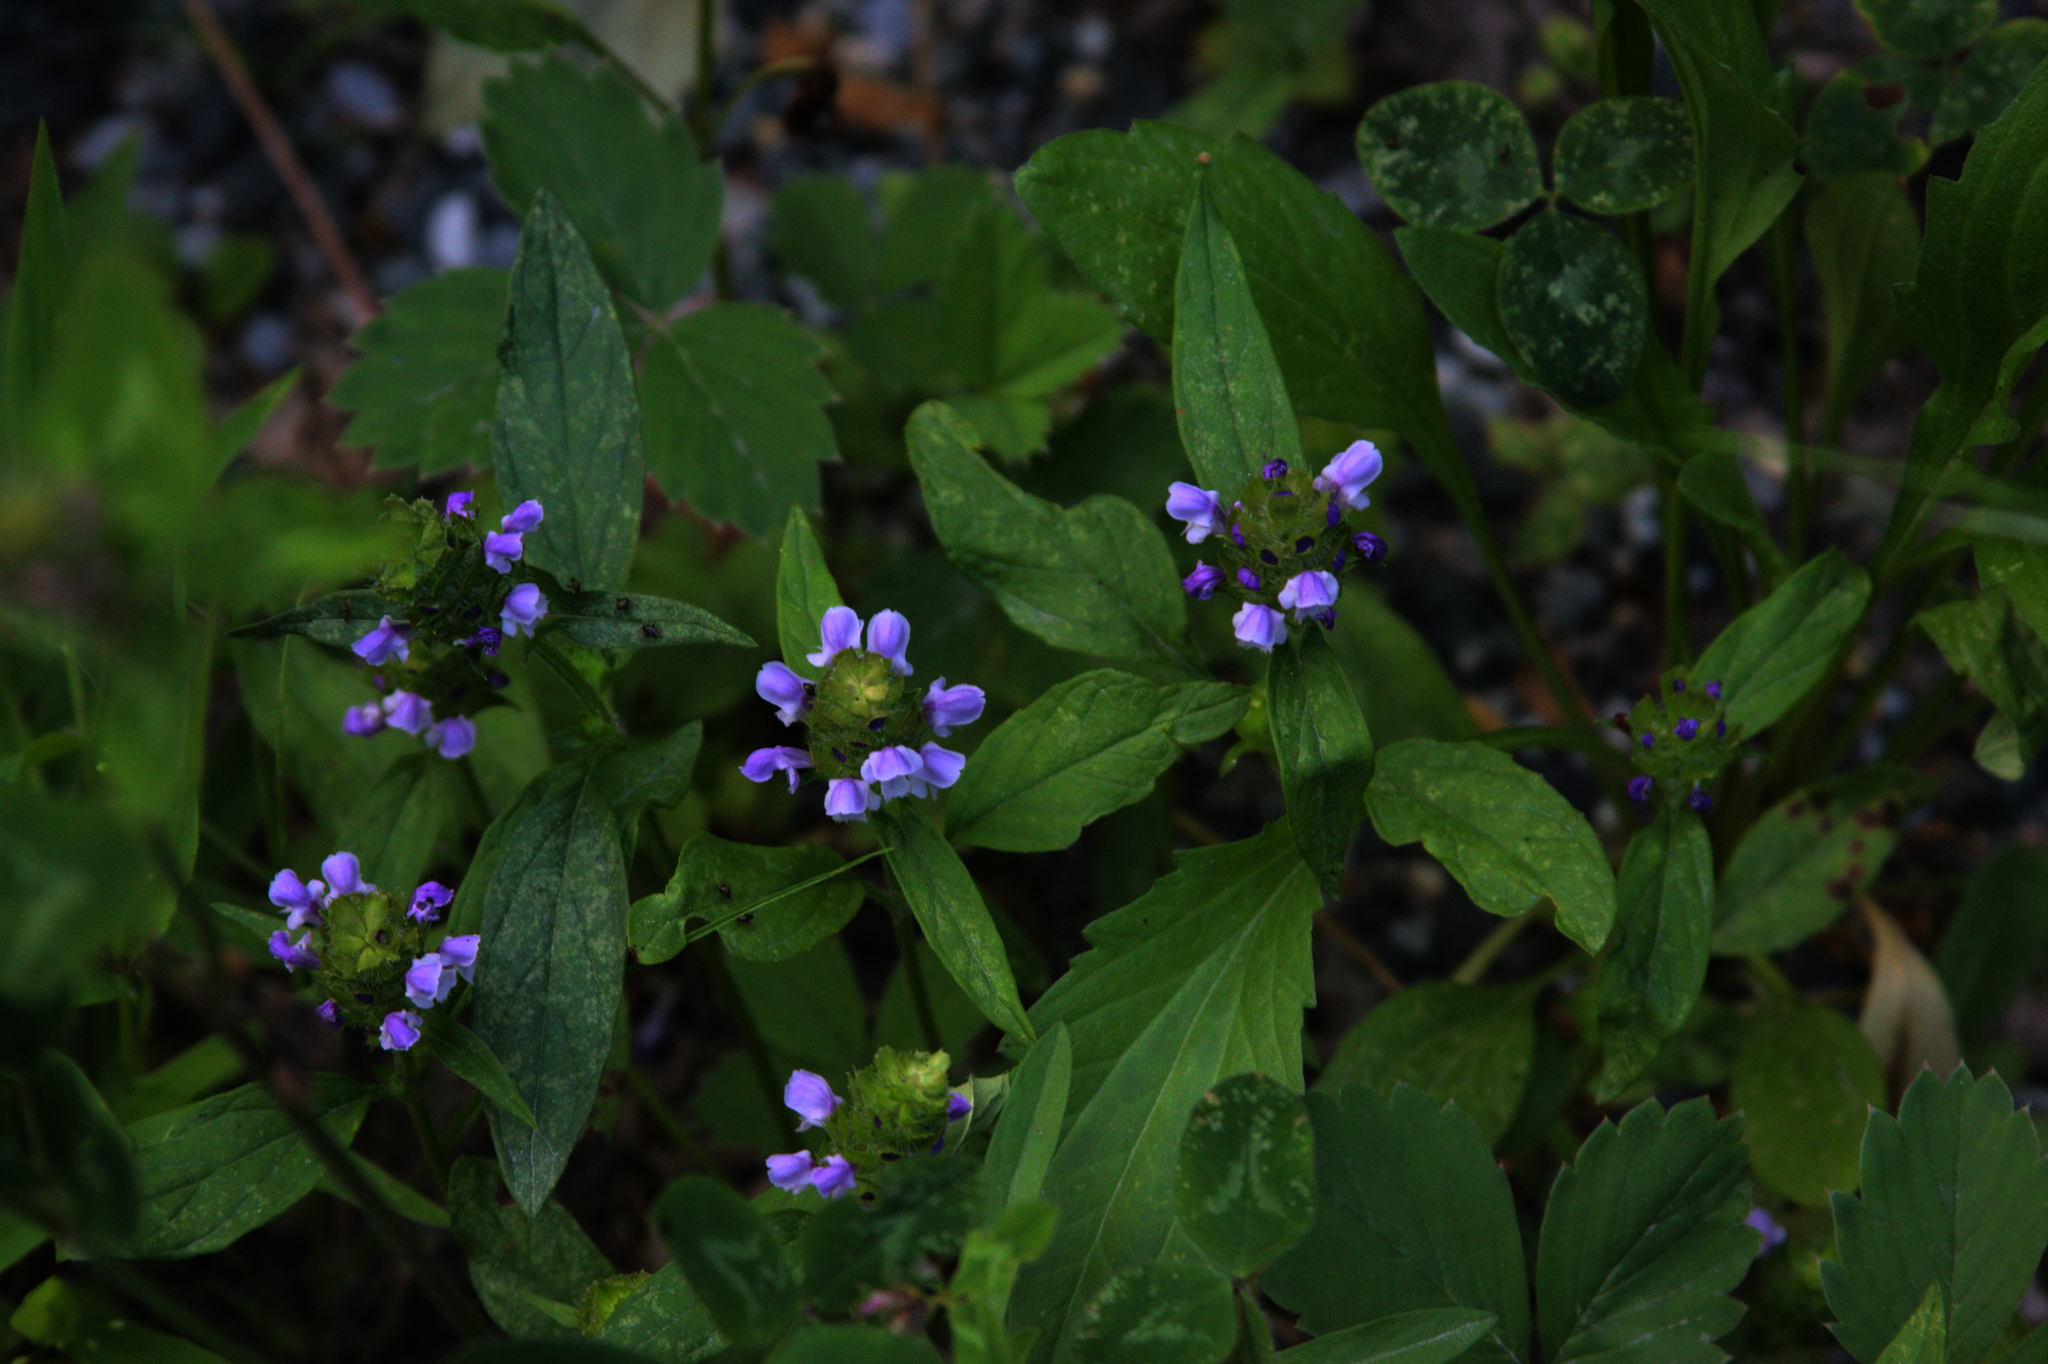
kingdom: Plantae
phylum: Tracheophyta
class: Magnoliopsida
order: Lamiales
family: Lamiaceae
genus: Prunella
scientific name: Prunella vulgaris
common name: Heal-all
